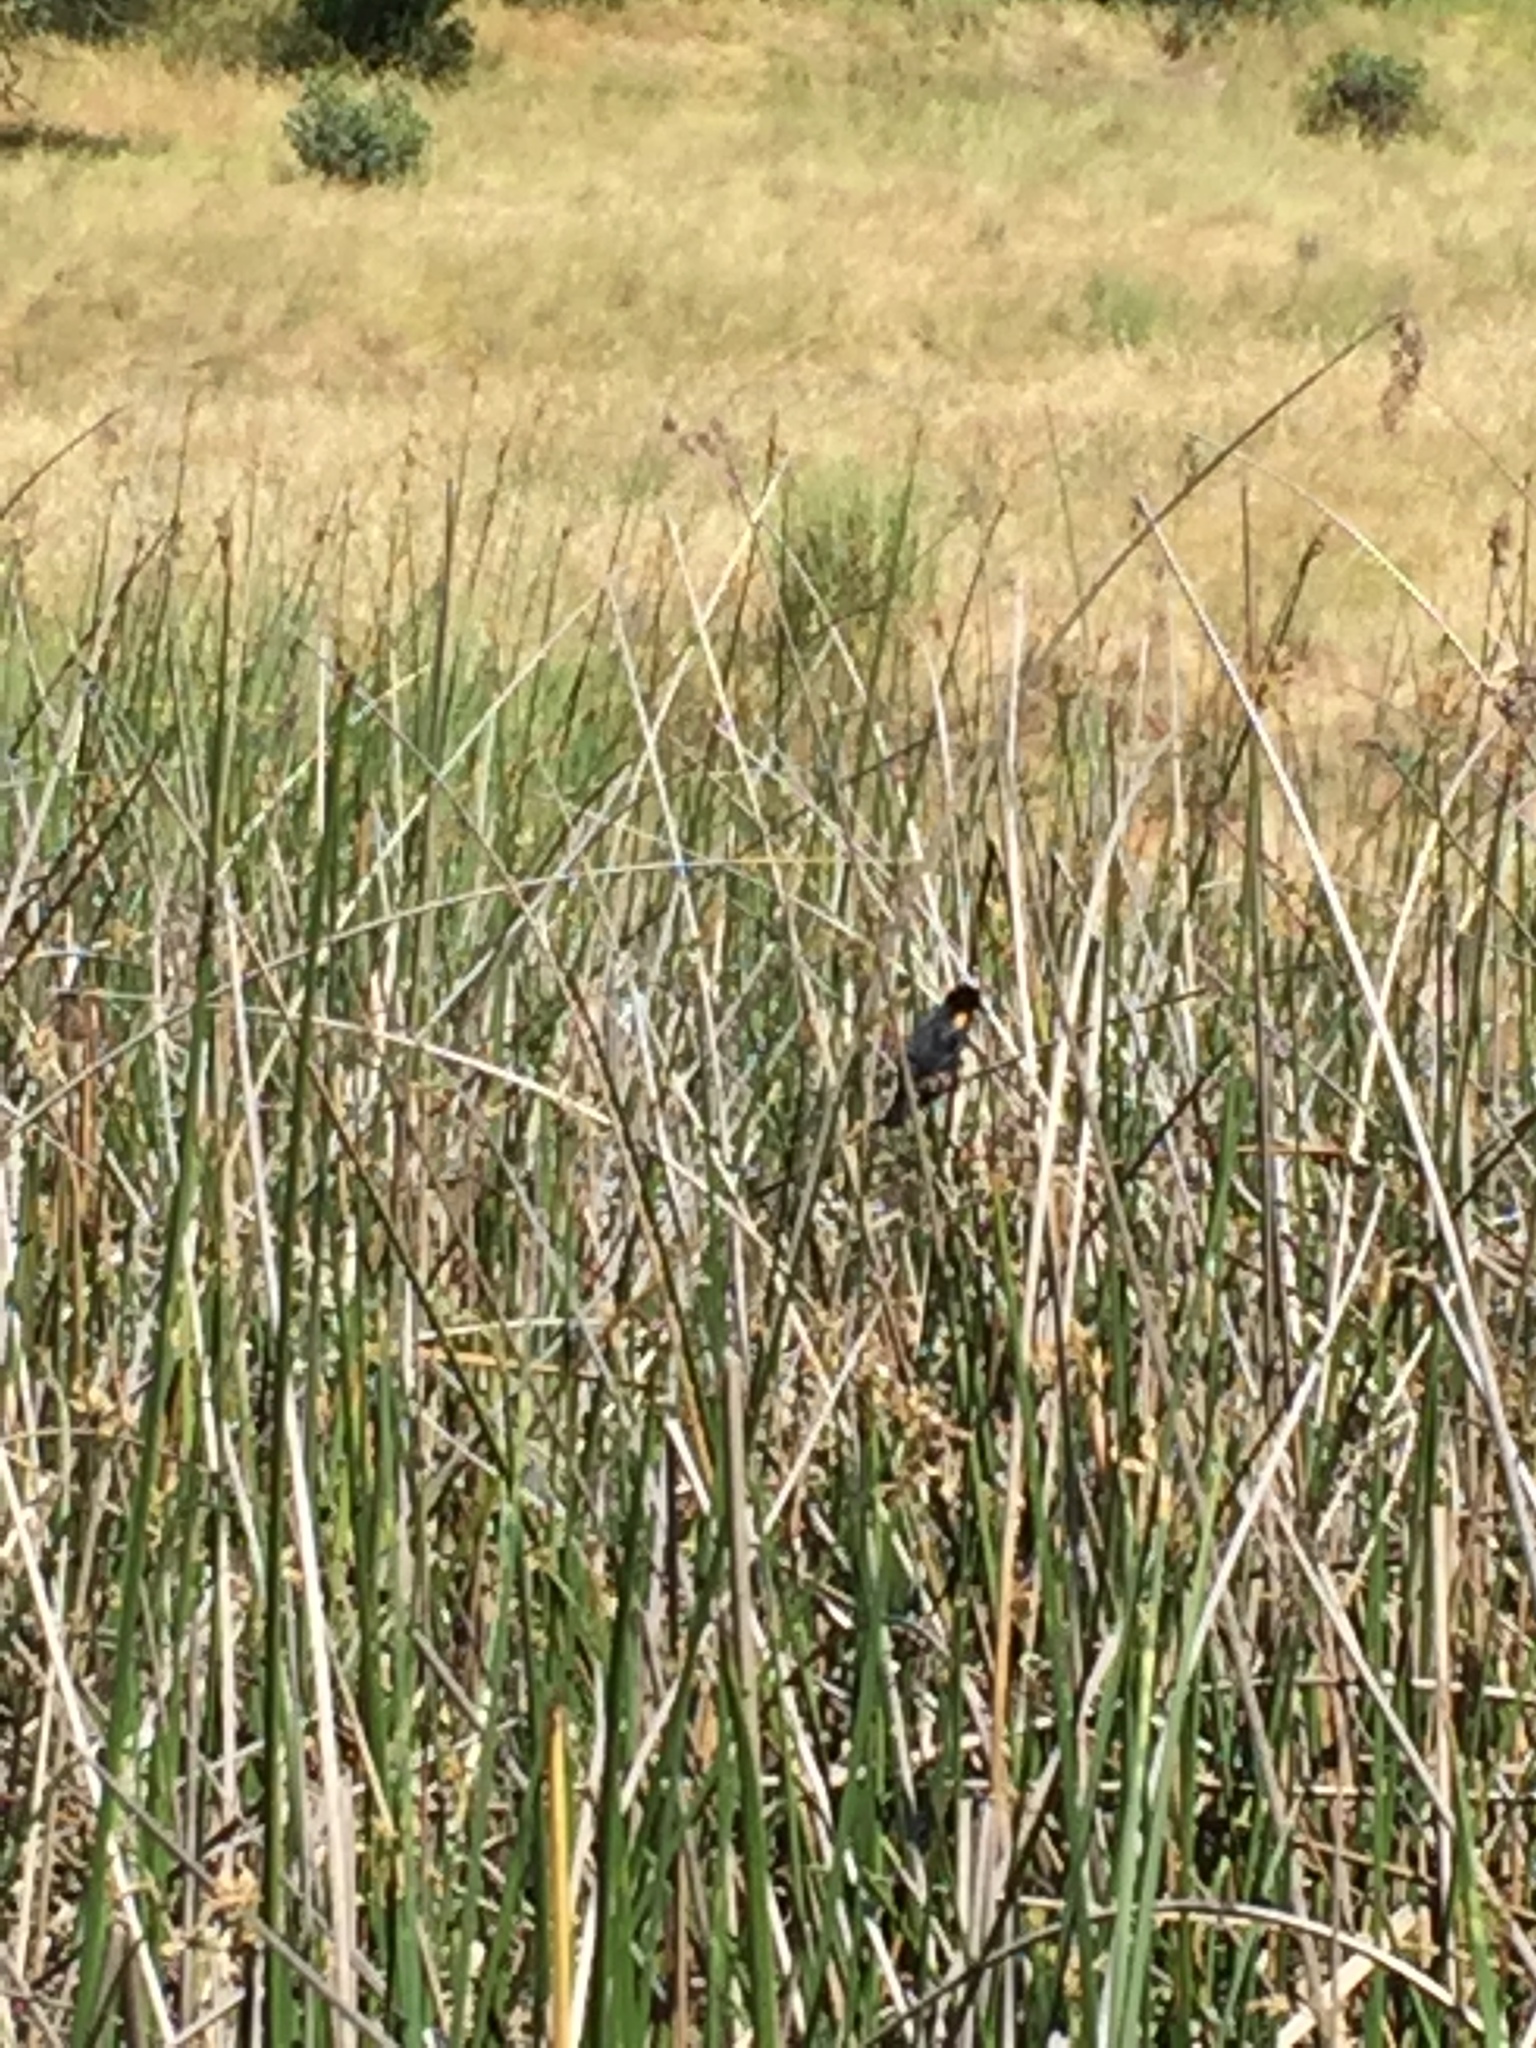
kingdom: Animalia
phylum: Chordata
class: Aves
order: Passeriformes
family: Icteridae
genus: Agelaius
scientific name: Agelaius phoeniceus
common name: Red-winged blackbird
